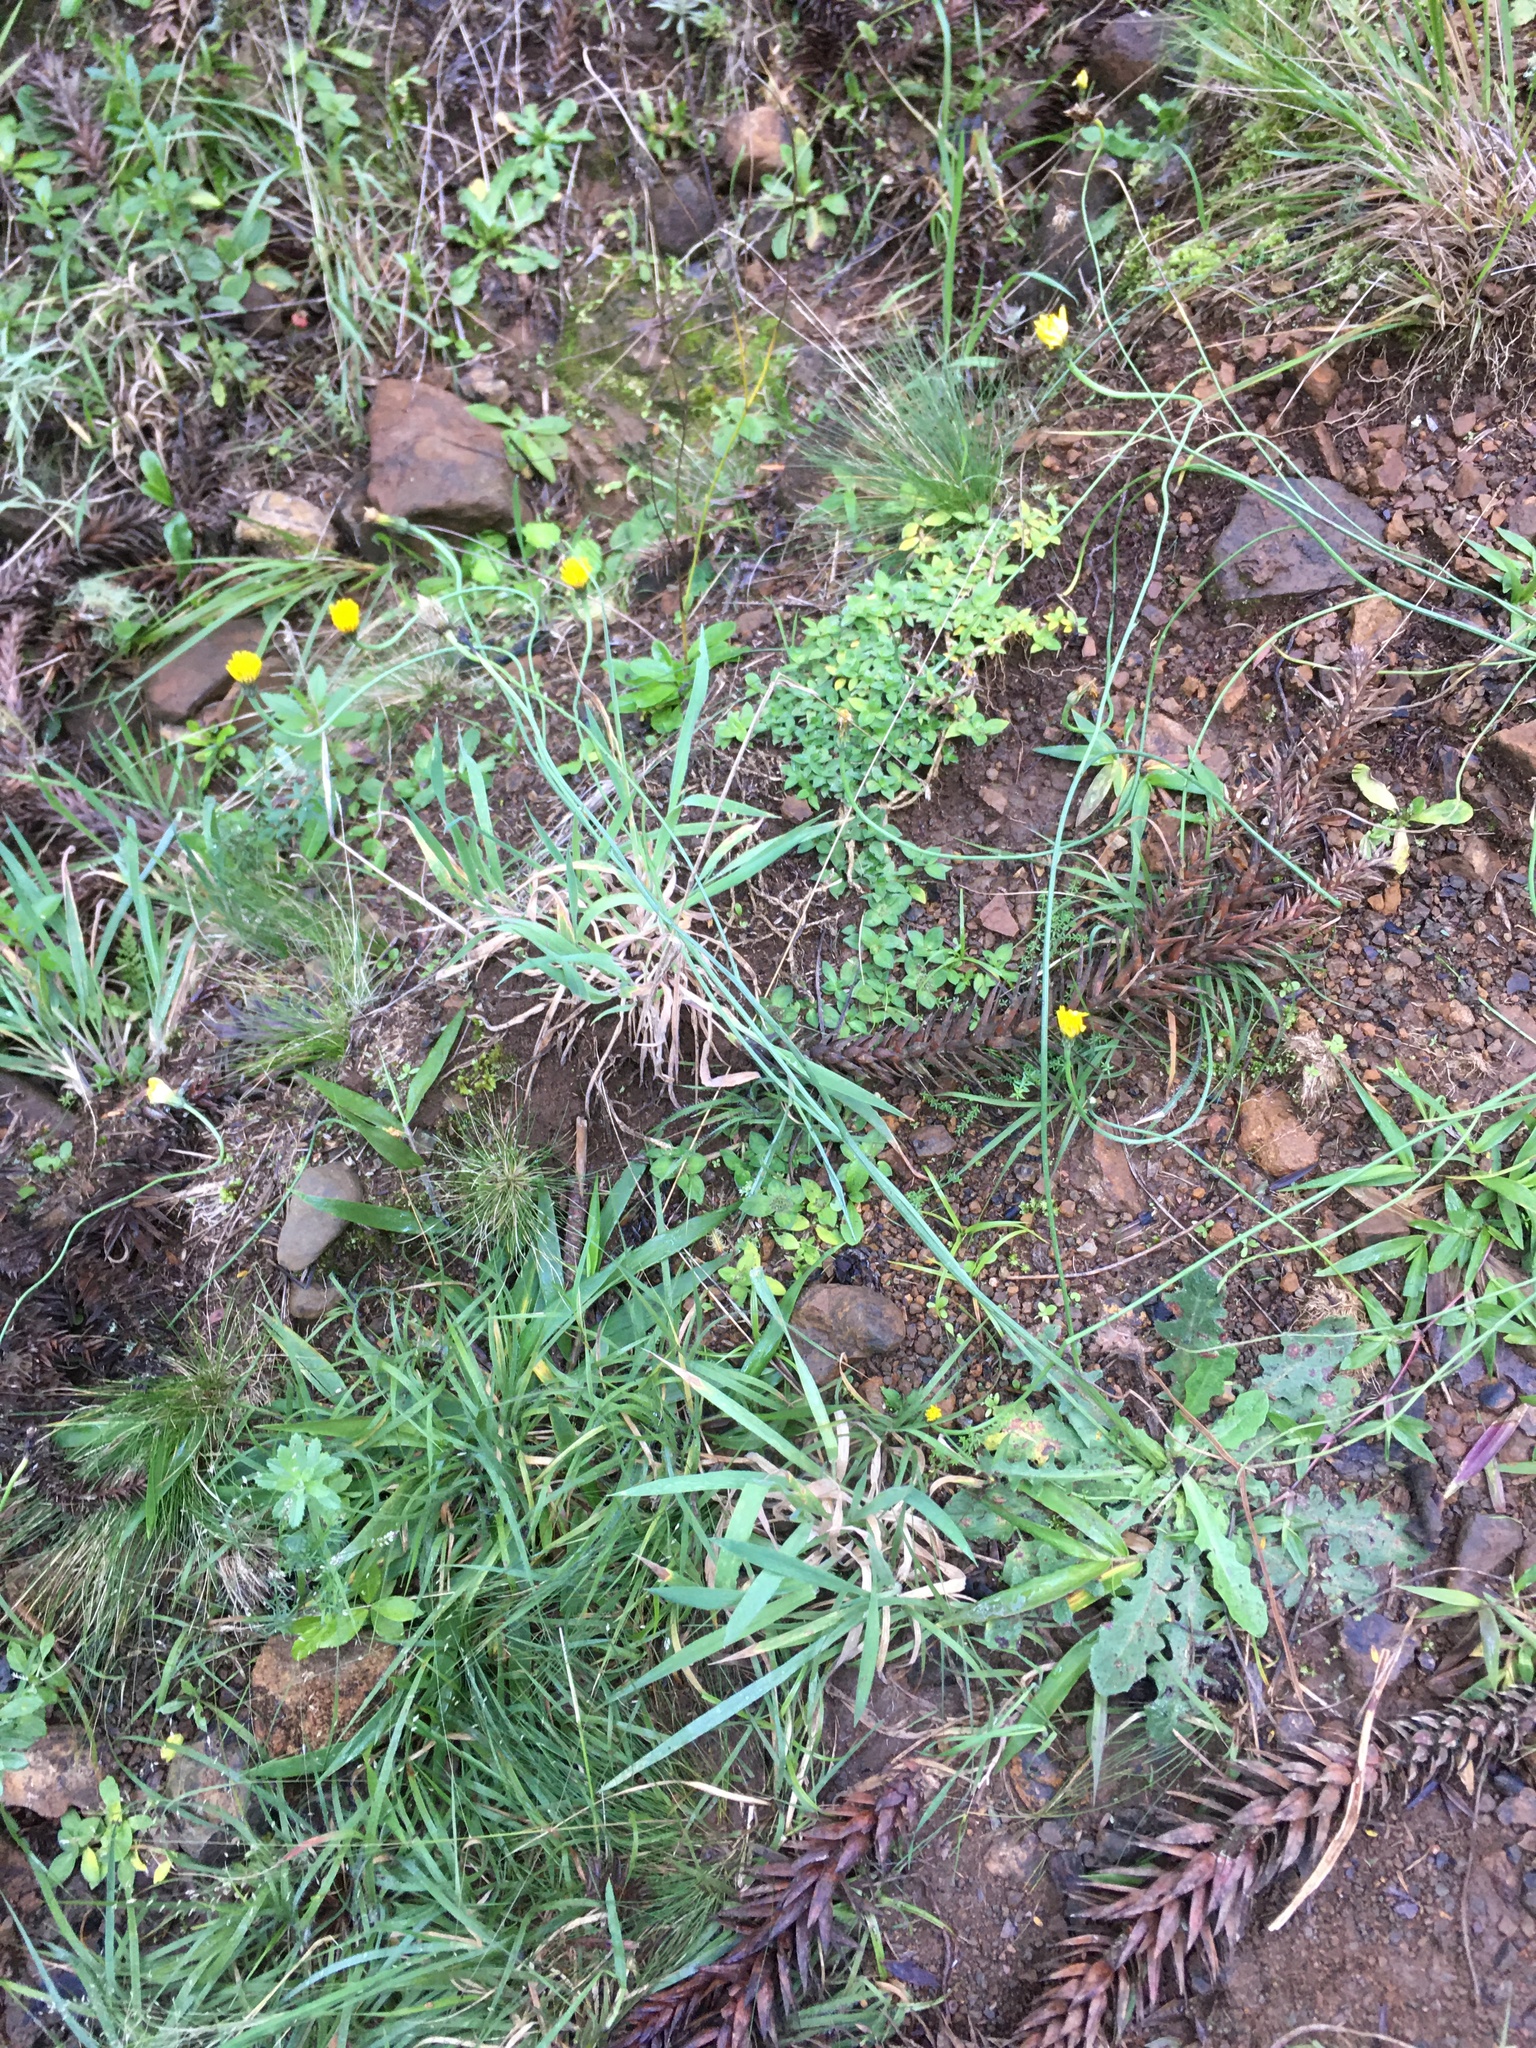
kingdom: Plantae
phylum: Tracheophyta
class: Magnoliopsida
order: Asterales
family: Asteraceae
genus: Hypochaeris
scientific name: Hypochaeris radicata
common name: Flatweed
